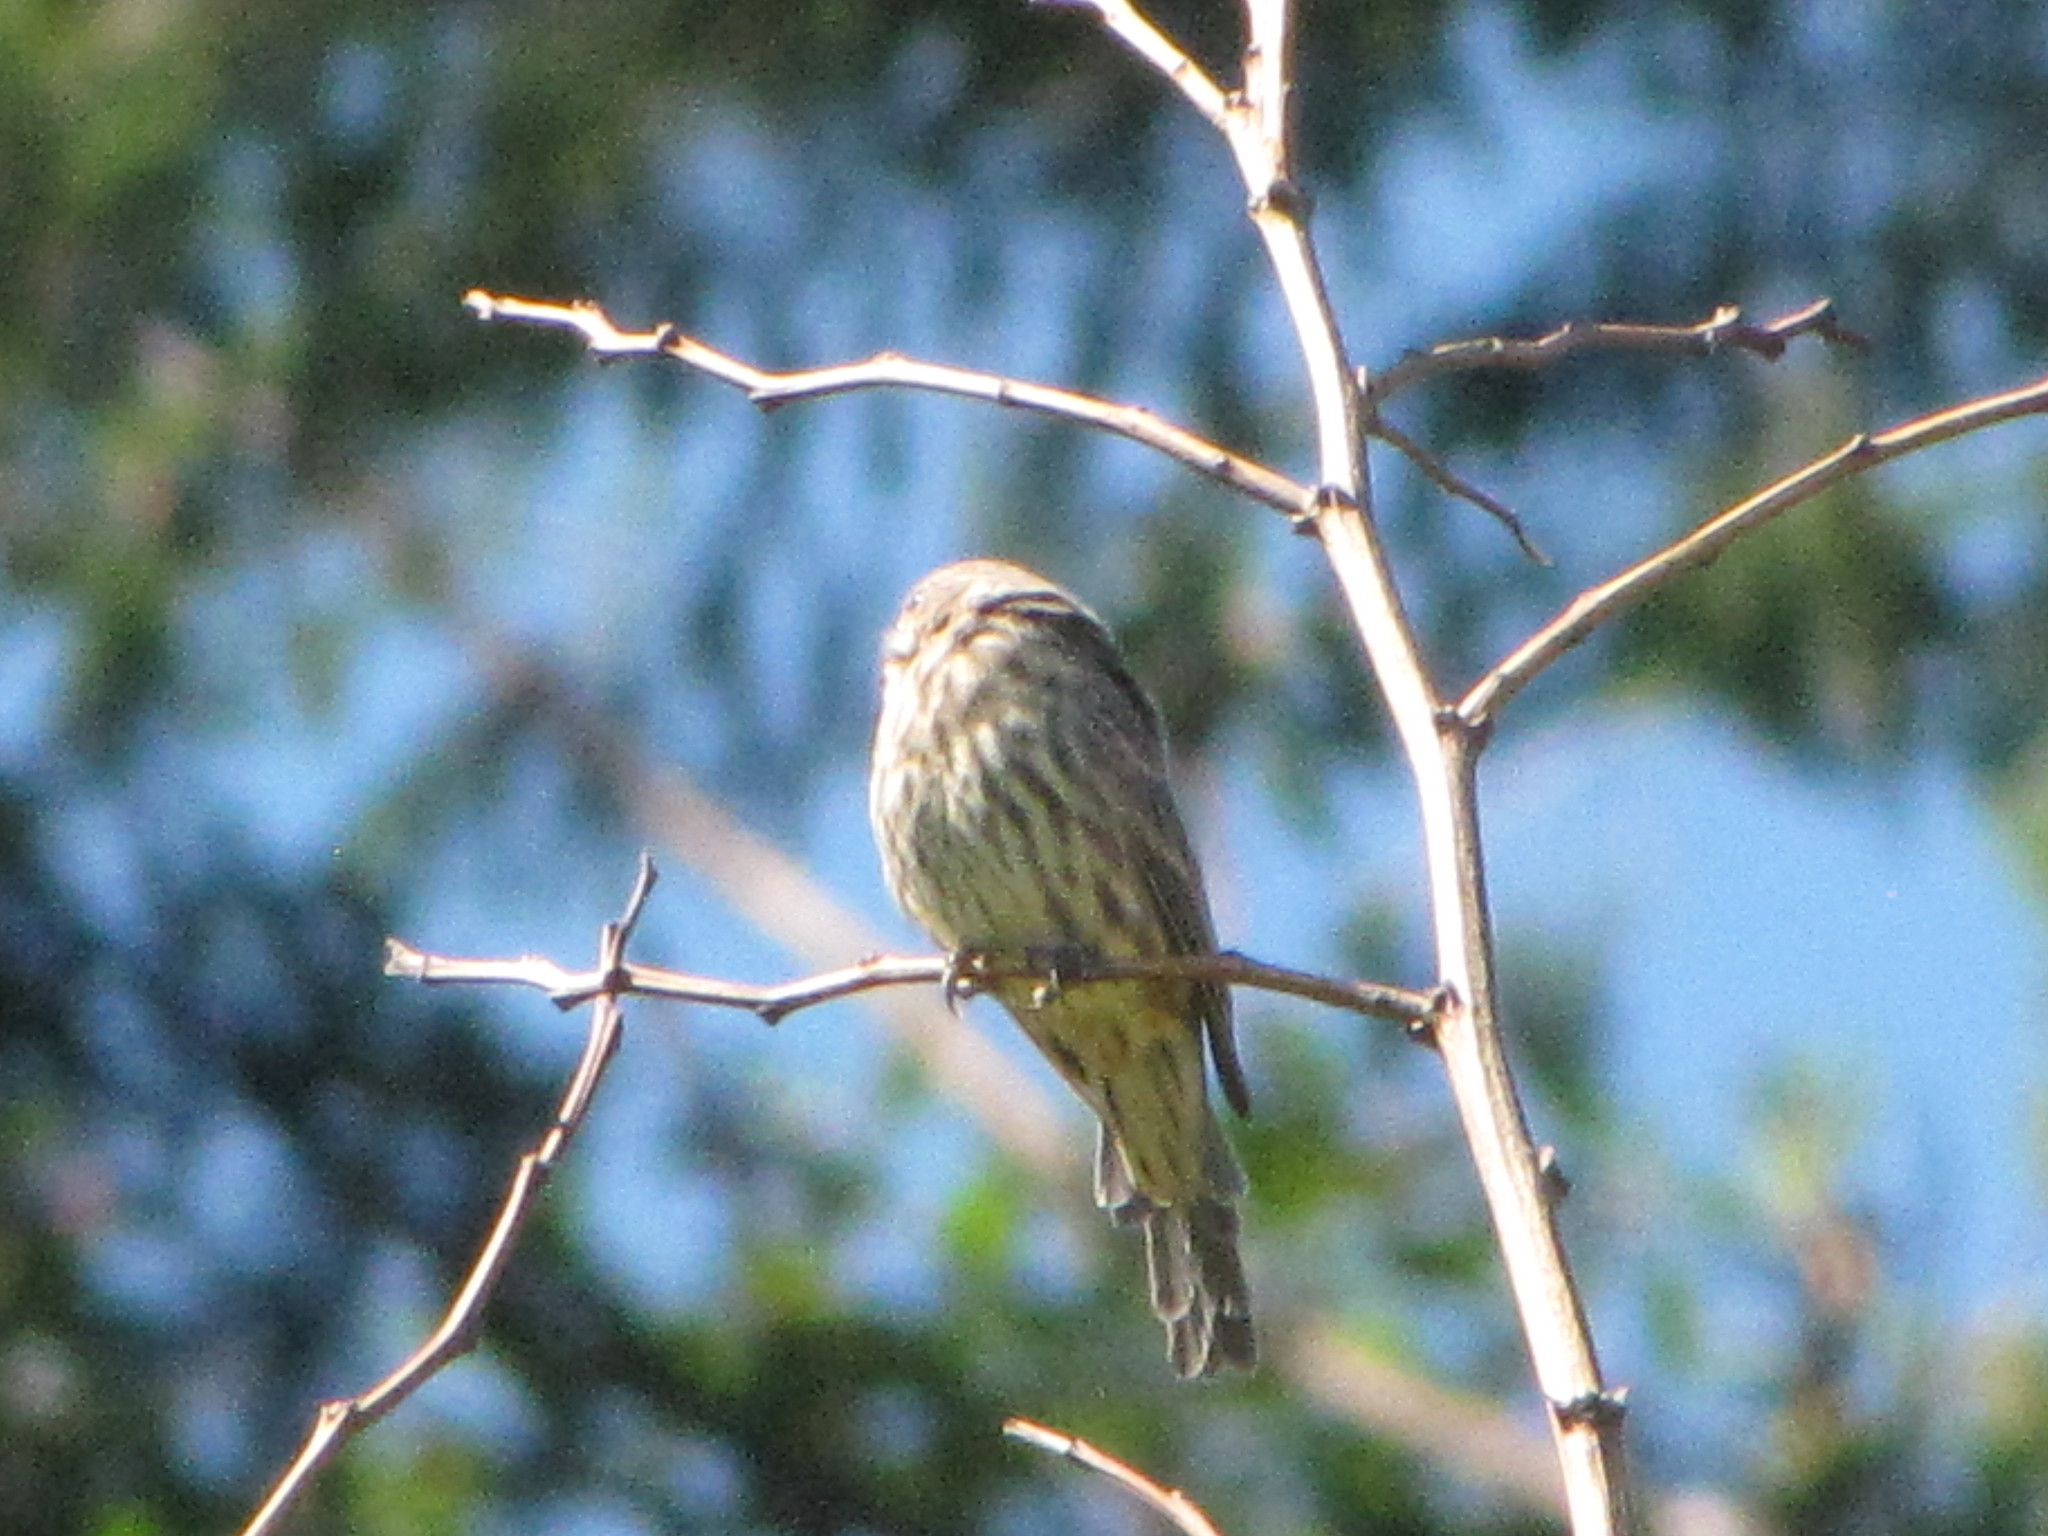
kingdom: Animalia
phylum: Chordata
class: Aves
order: Passeriformes
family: Fringillidae
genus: Haemorhous
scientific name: Haemorhous mexicanus
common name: House finch
